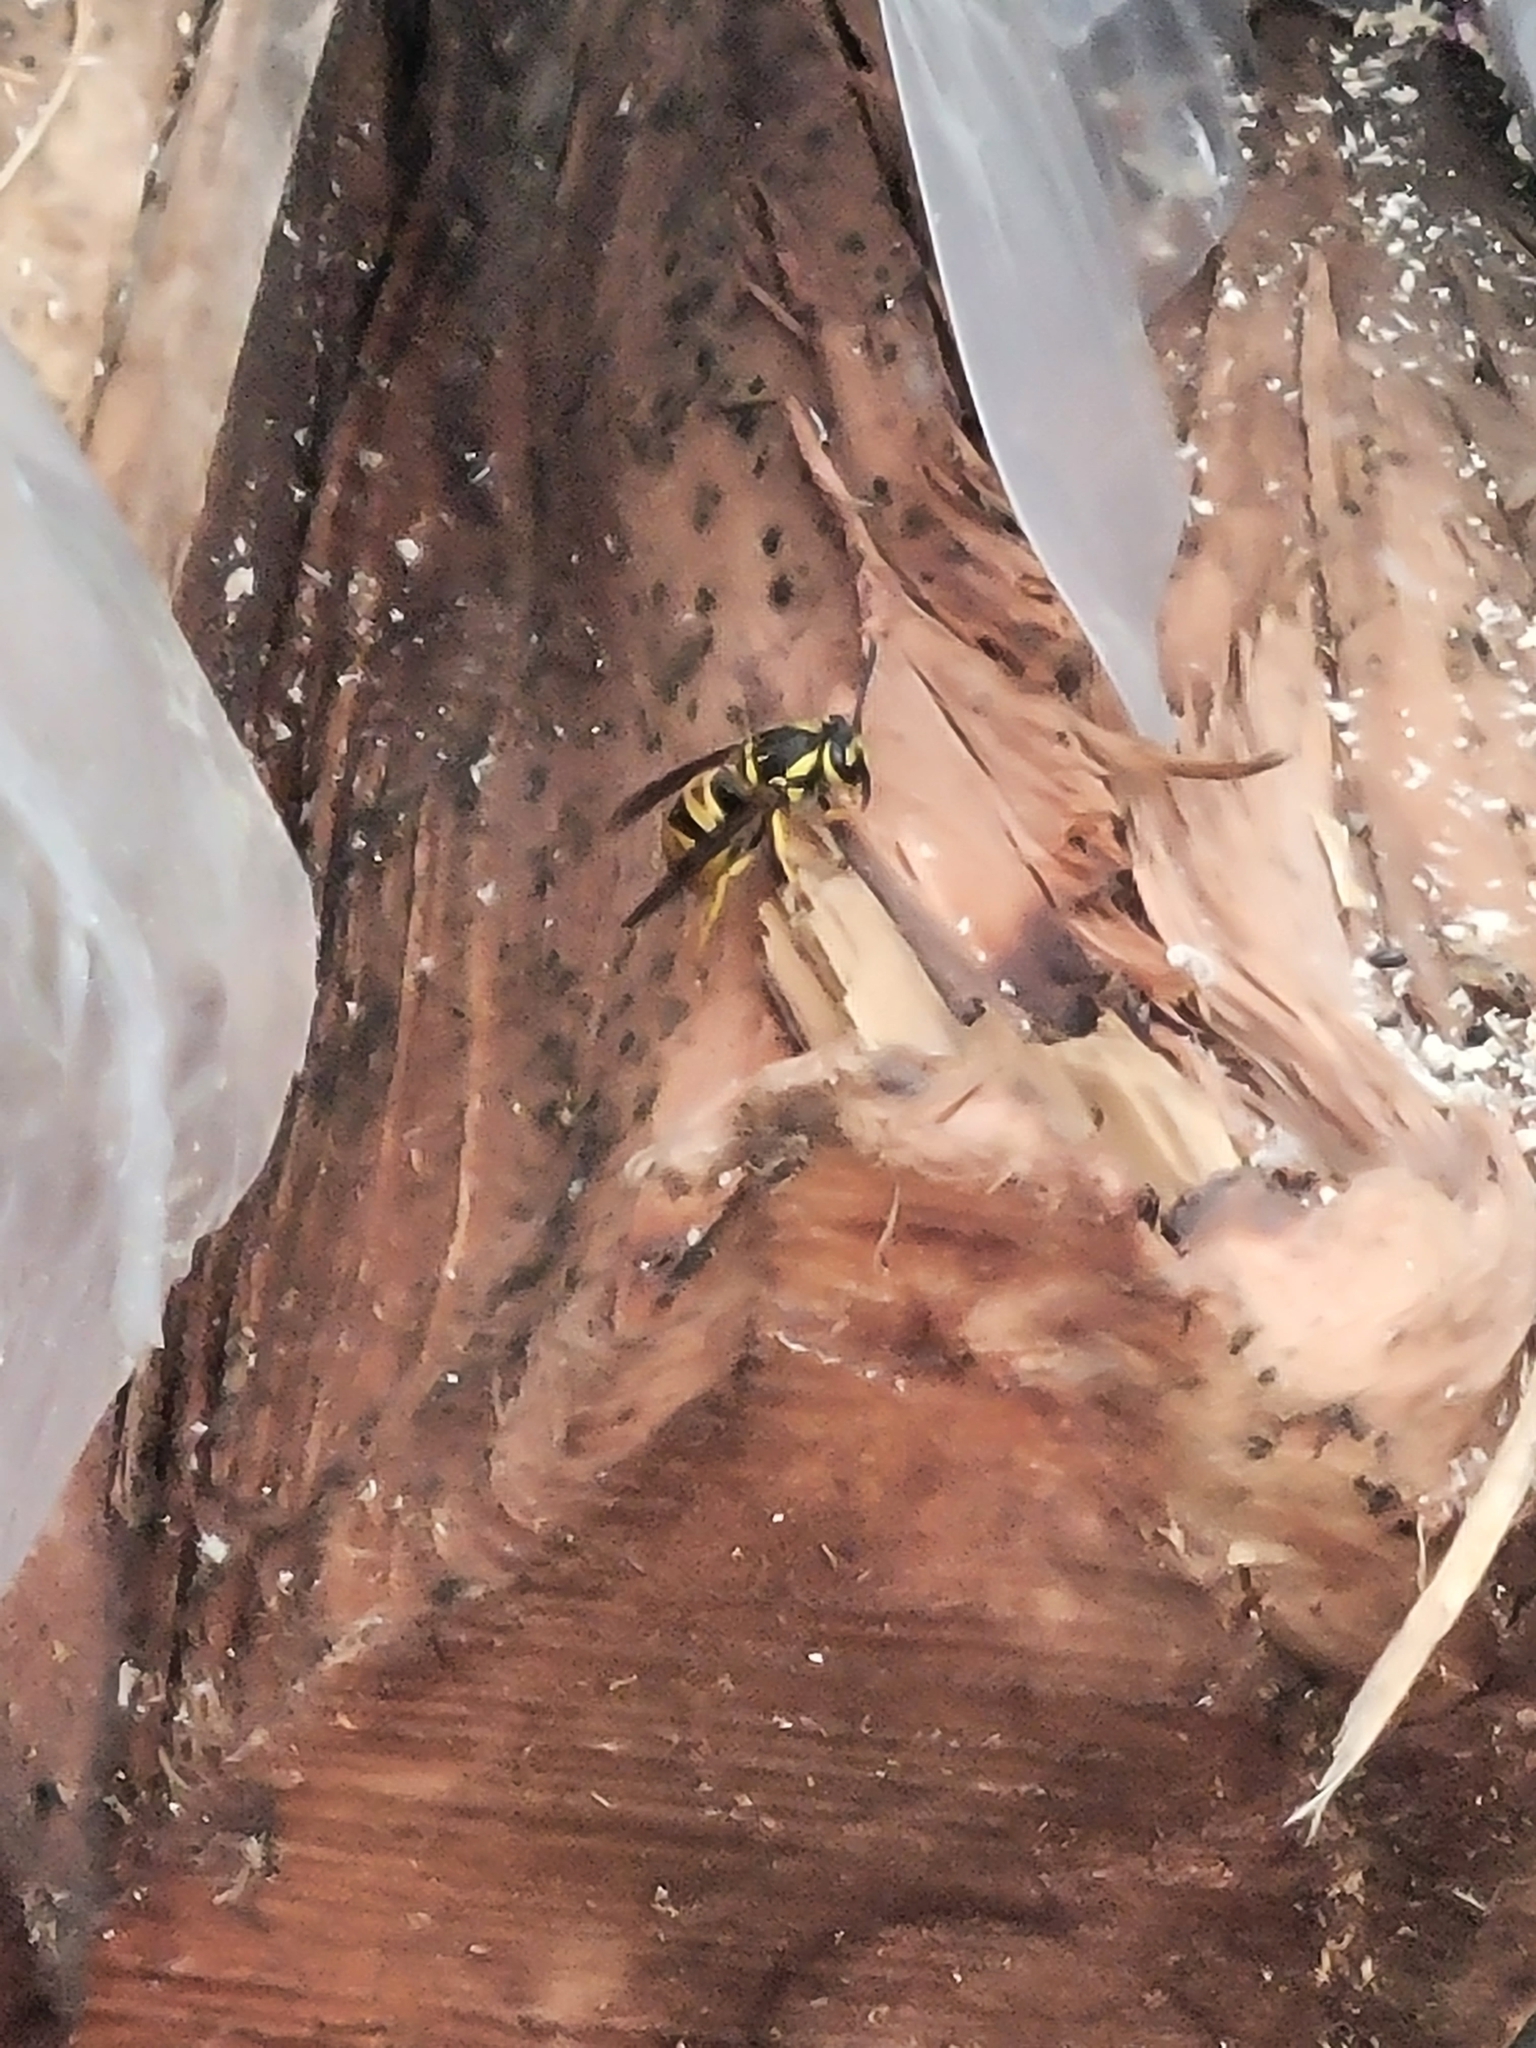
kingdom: Animalia
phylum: Arthropoda
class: Insecta
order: Hymenoptera
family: Vespidae
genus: Vespula
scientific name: Vespula maculifrons
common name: Eastern yellowjacket
